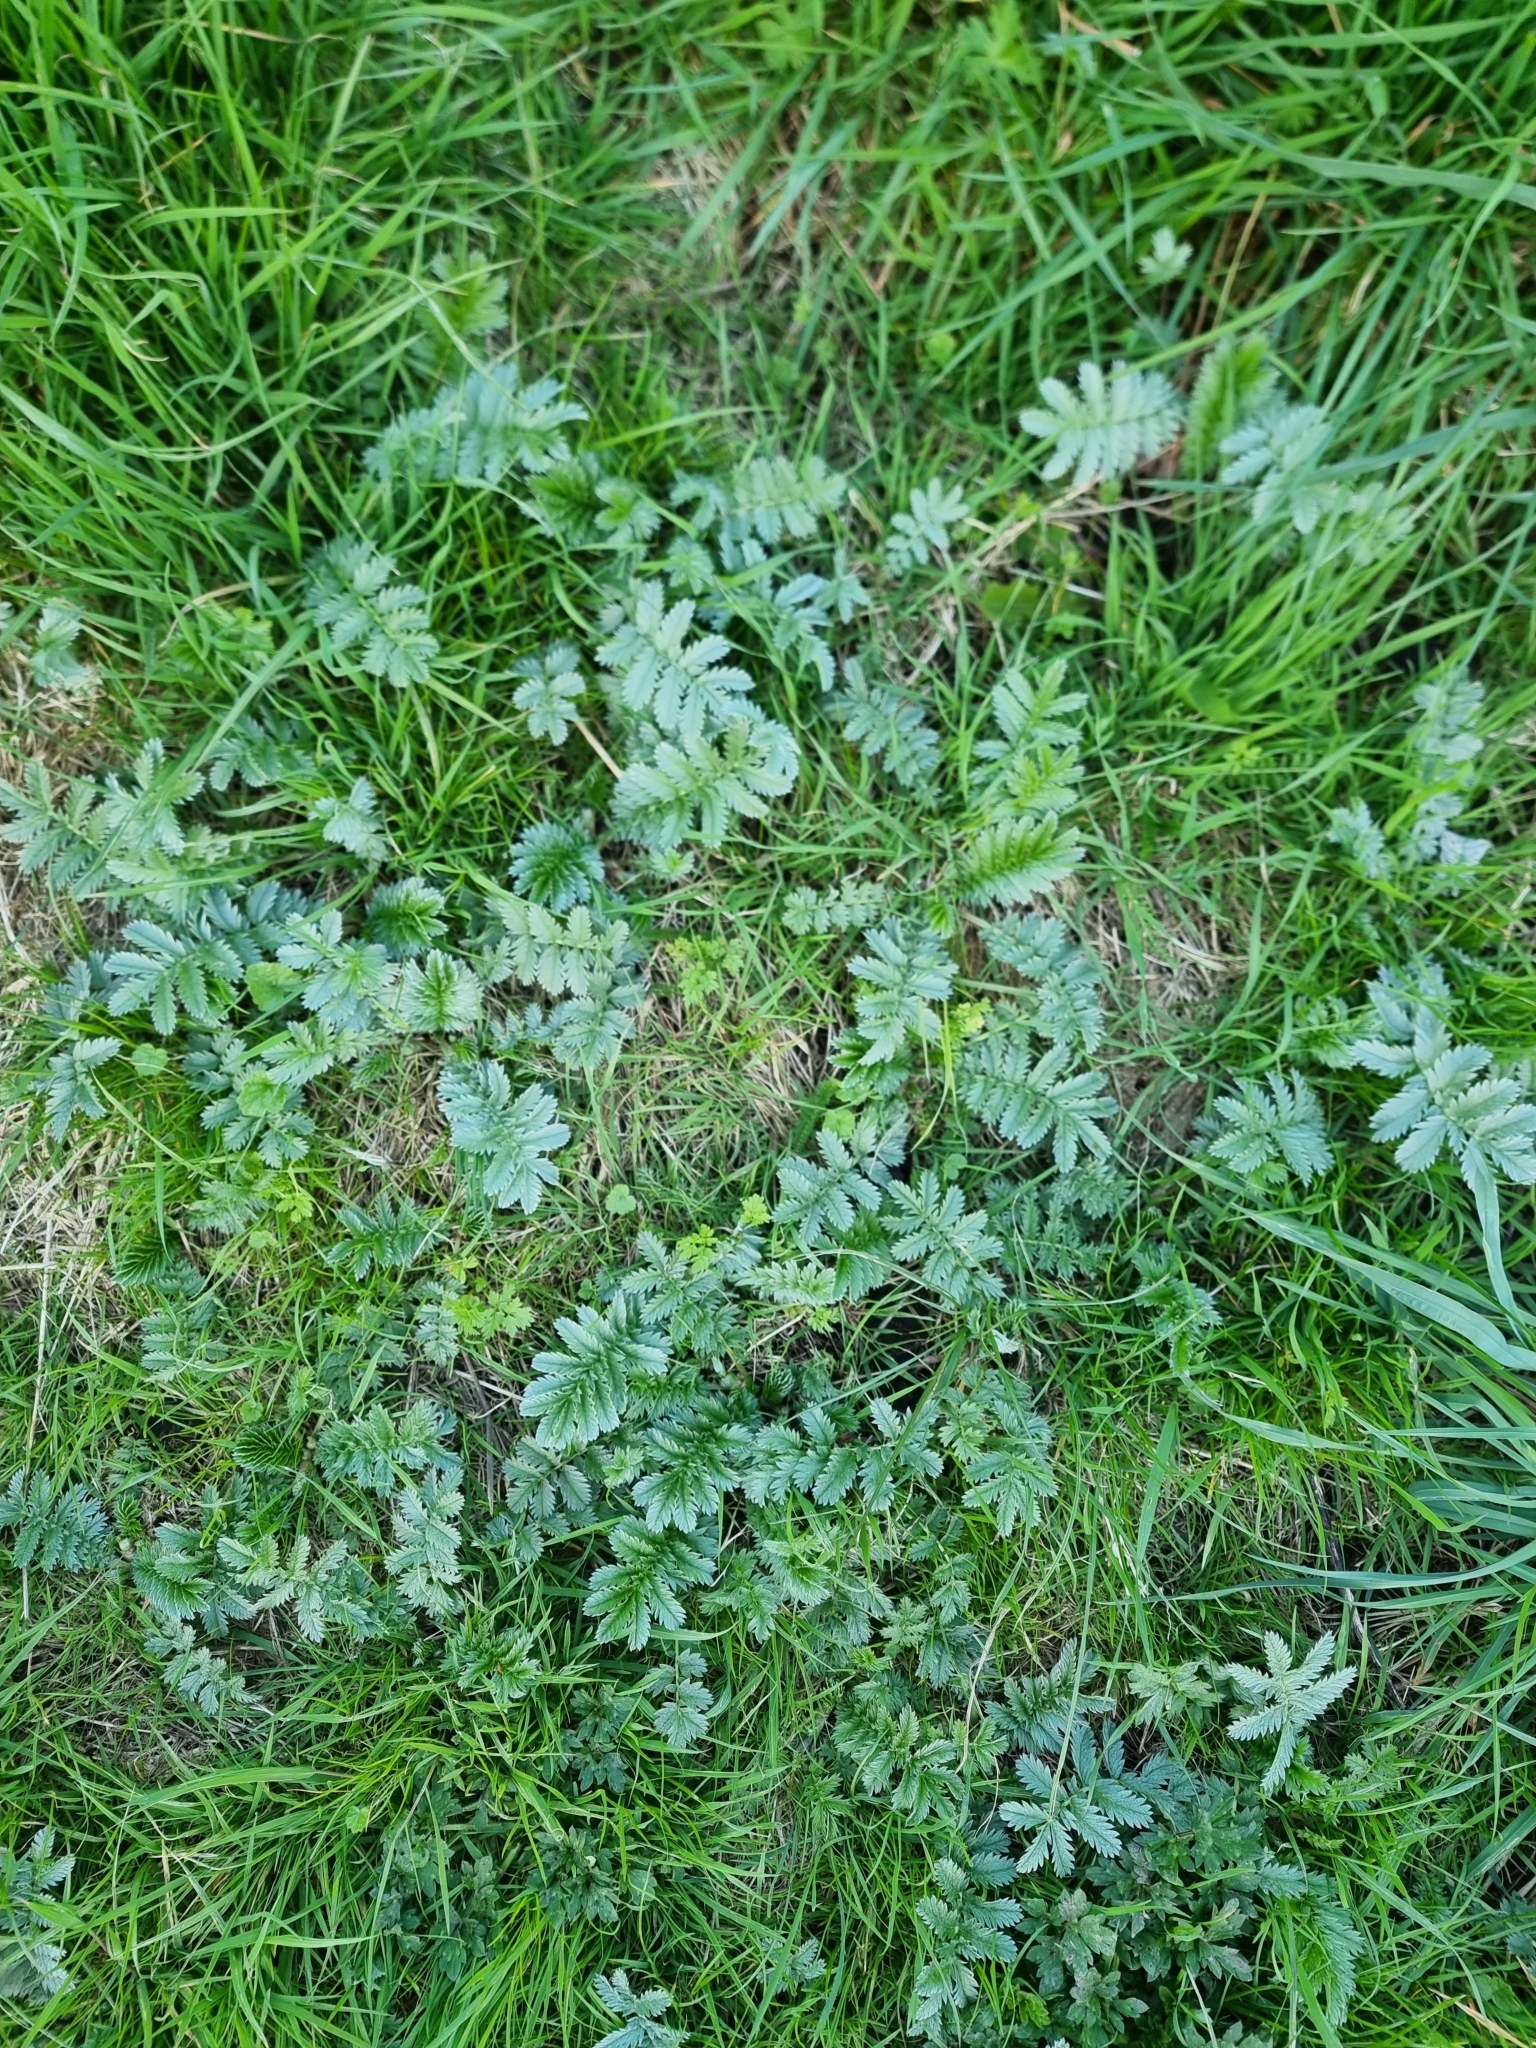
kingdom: Plantae
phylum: Tracheophyta
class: Magnoliopsida
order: Rosales
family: Rosaceae
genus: Argentina
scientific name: Argentina anserina
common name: Common silverweed
